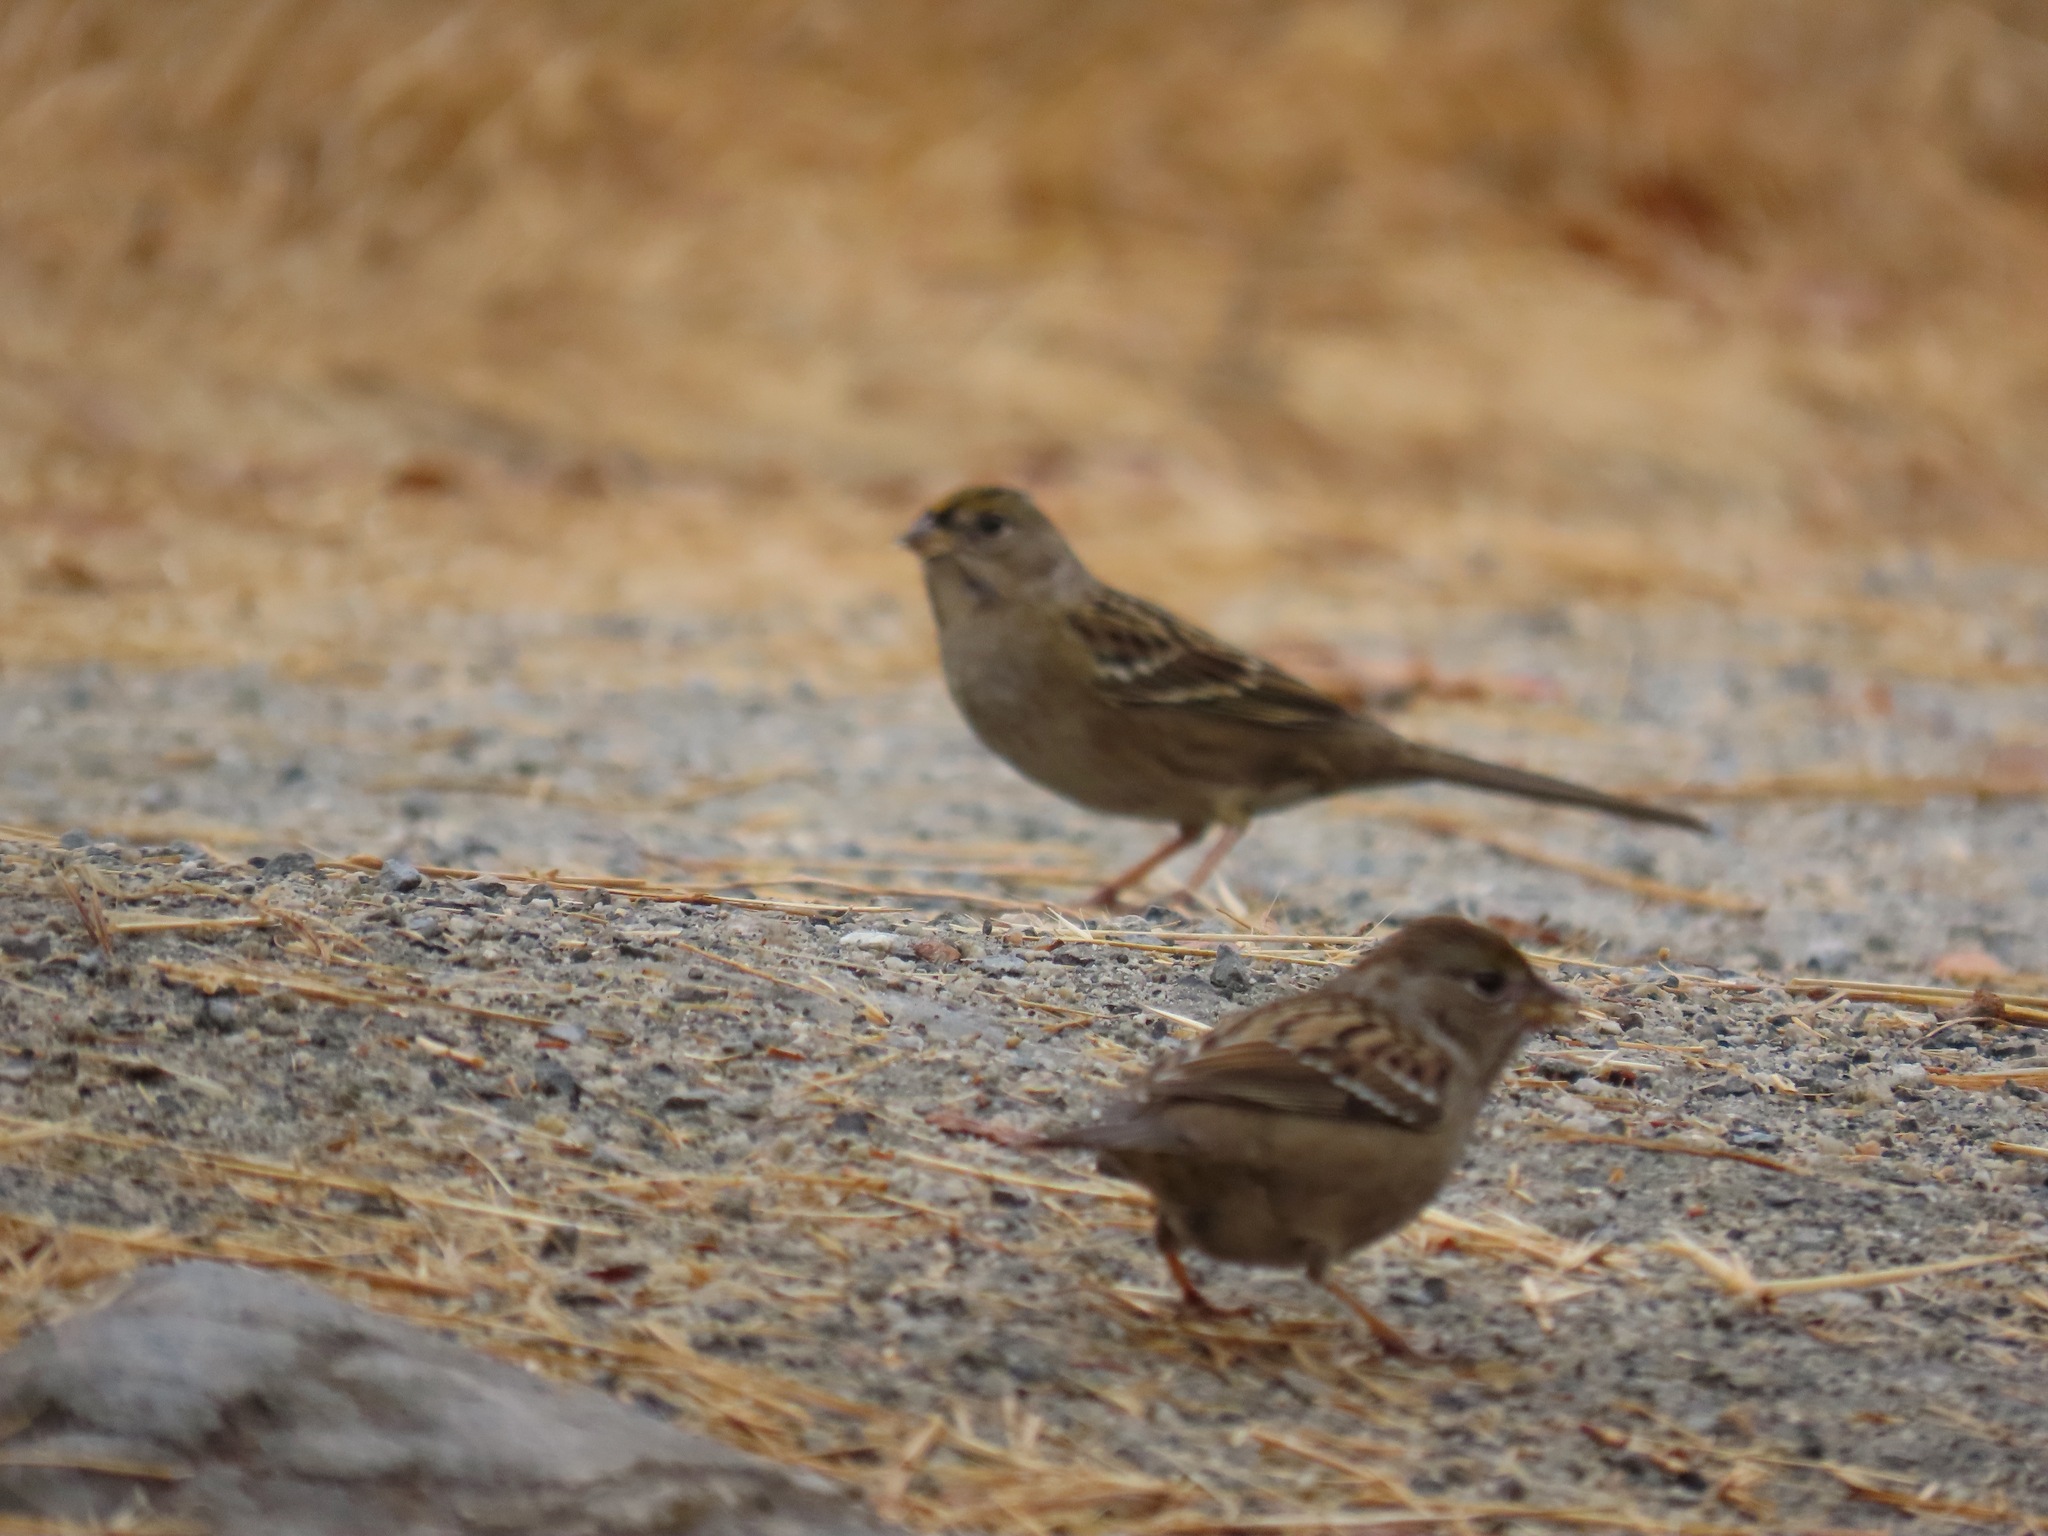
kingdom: Animalia
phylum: Chordata
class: Aves
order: Passeriformes
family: Passerellidae
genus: Zonotrichia
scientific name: Zonotrichia atricapilla
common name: Golden-crowned sparrow
